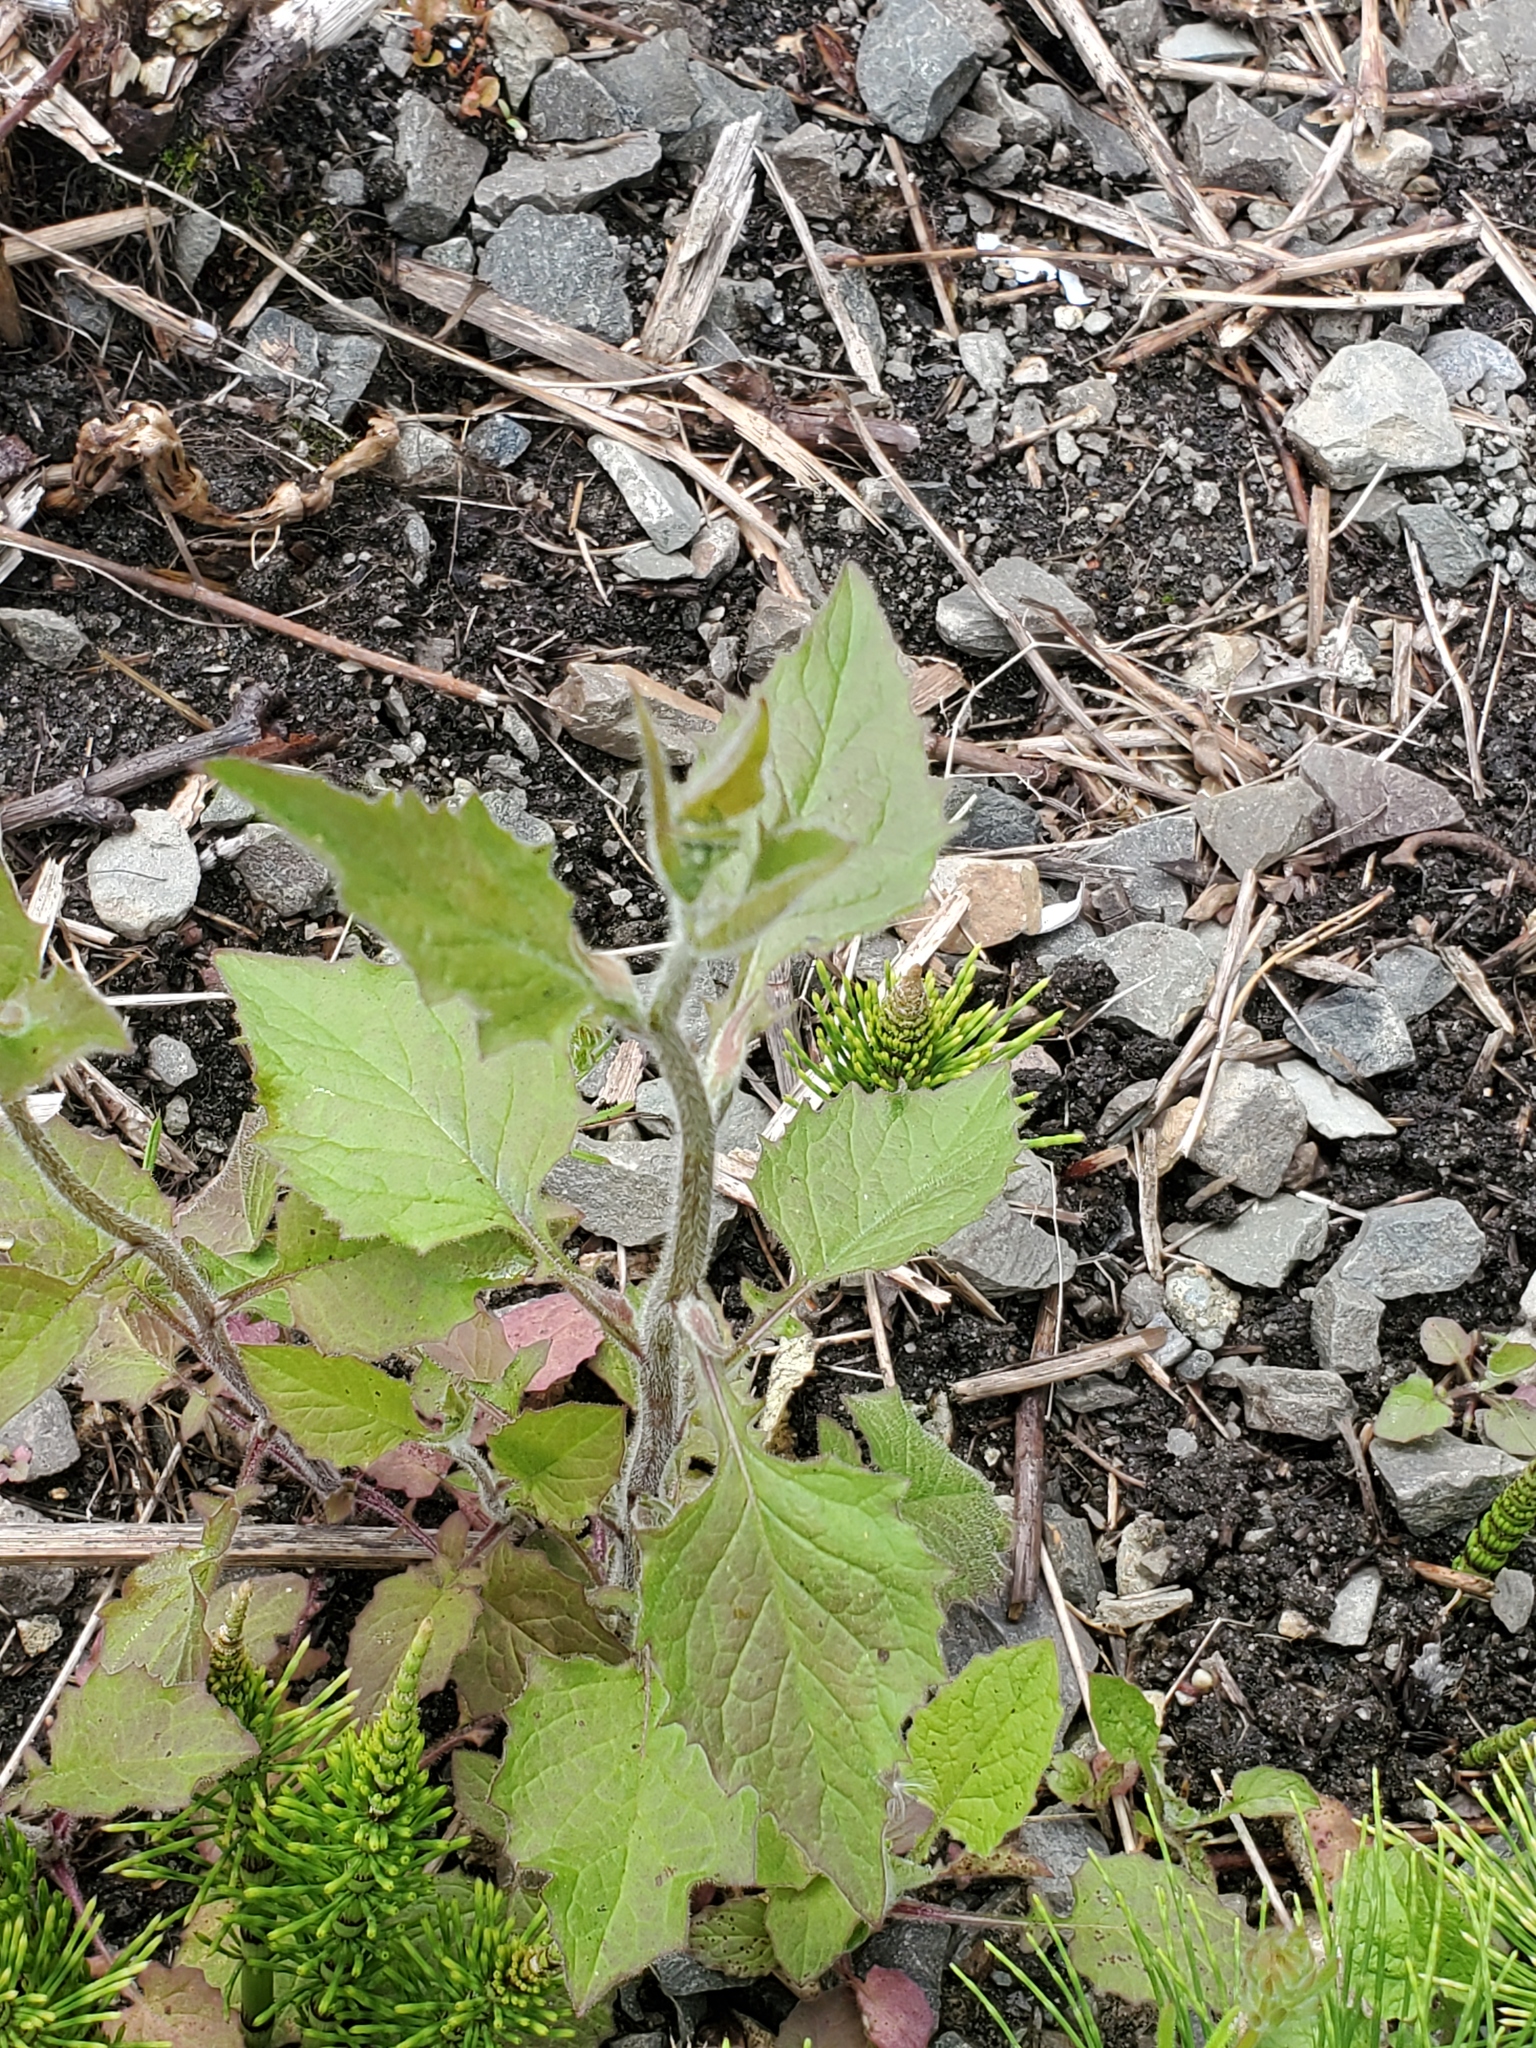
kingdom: Plantae
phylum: Tracheophyta
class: Magnoliopsida
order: Asterales
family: Asteraceae
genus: Lapsana
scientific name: Lapsana communis
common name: Nipplewort
